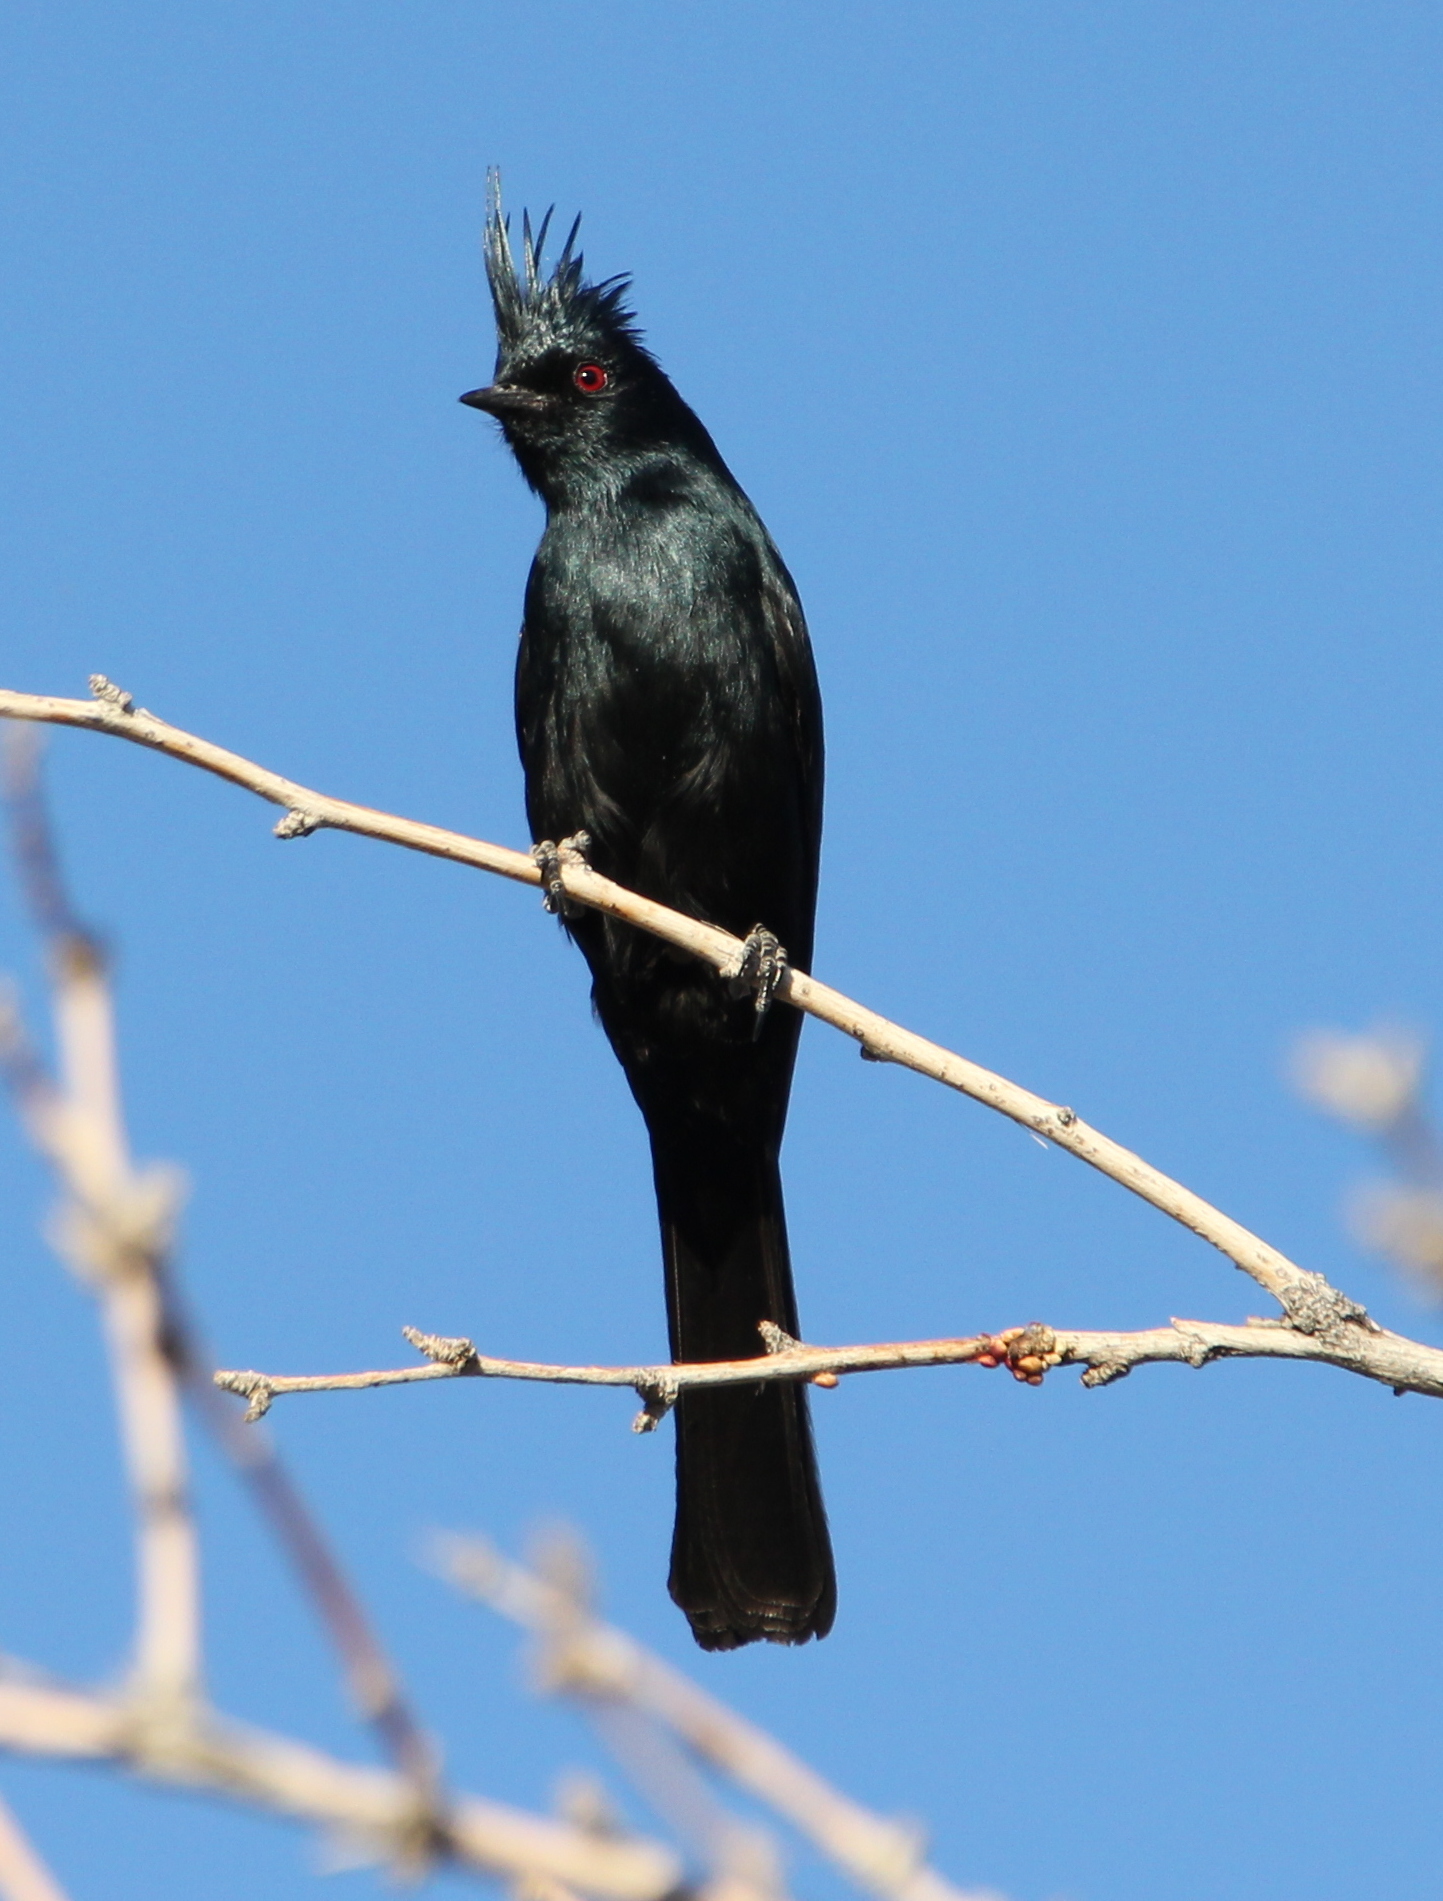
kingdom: Animalia
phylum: Chordata
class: Aves
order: Passeriformes
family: Ptilogonatidae
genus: Phainopepla
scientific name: Phainopepla nitens
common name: Phainopepla
